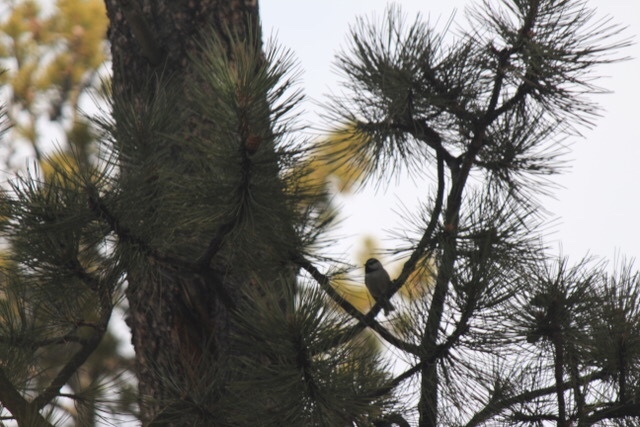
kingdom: Animalia
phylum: Chordata
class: Aves
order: Passeriformes
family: Paridae
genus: Poecile
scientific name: Poecile gambeli
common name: Mountain chickadee
